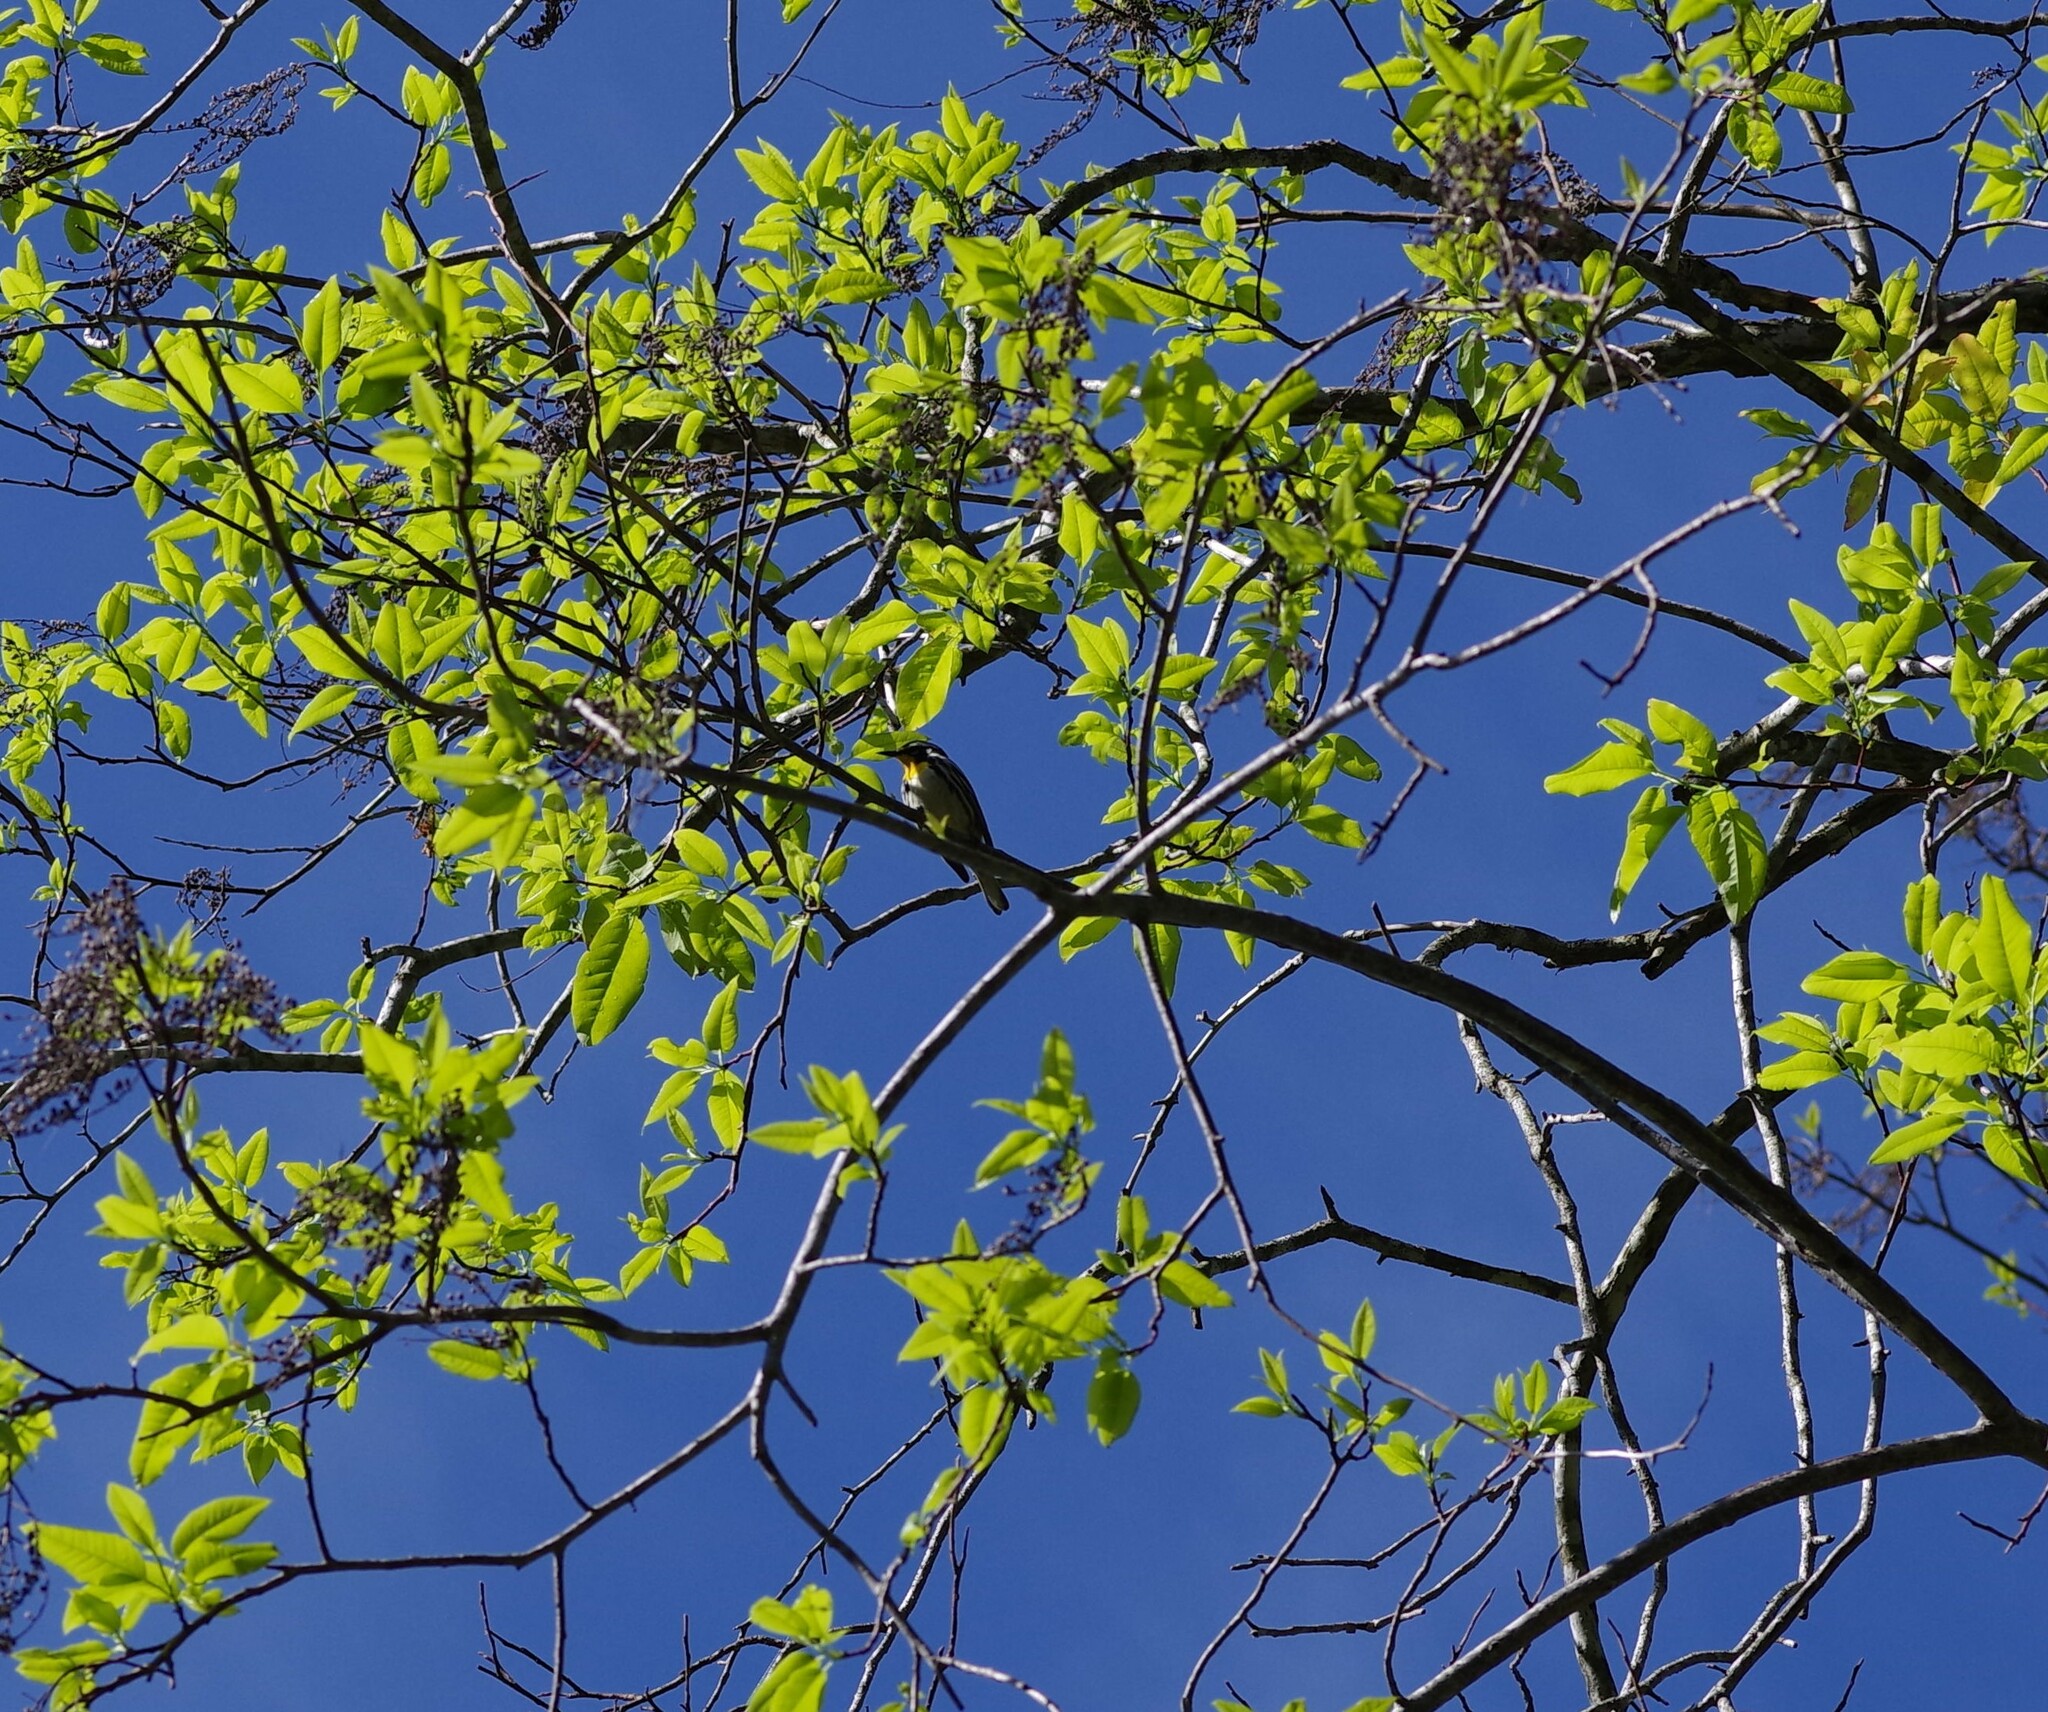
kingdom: Animalia
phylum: Chordata
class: Aves
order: Passeriformes
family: Parulidae
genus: Setophaga
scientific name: Setophaga dominica
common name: Yellow-throated warbler
